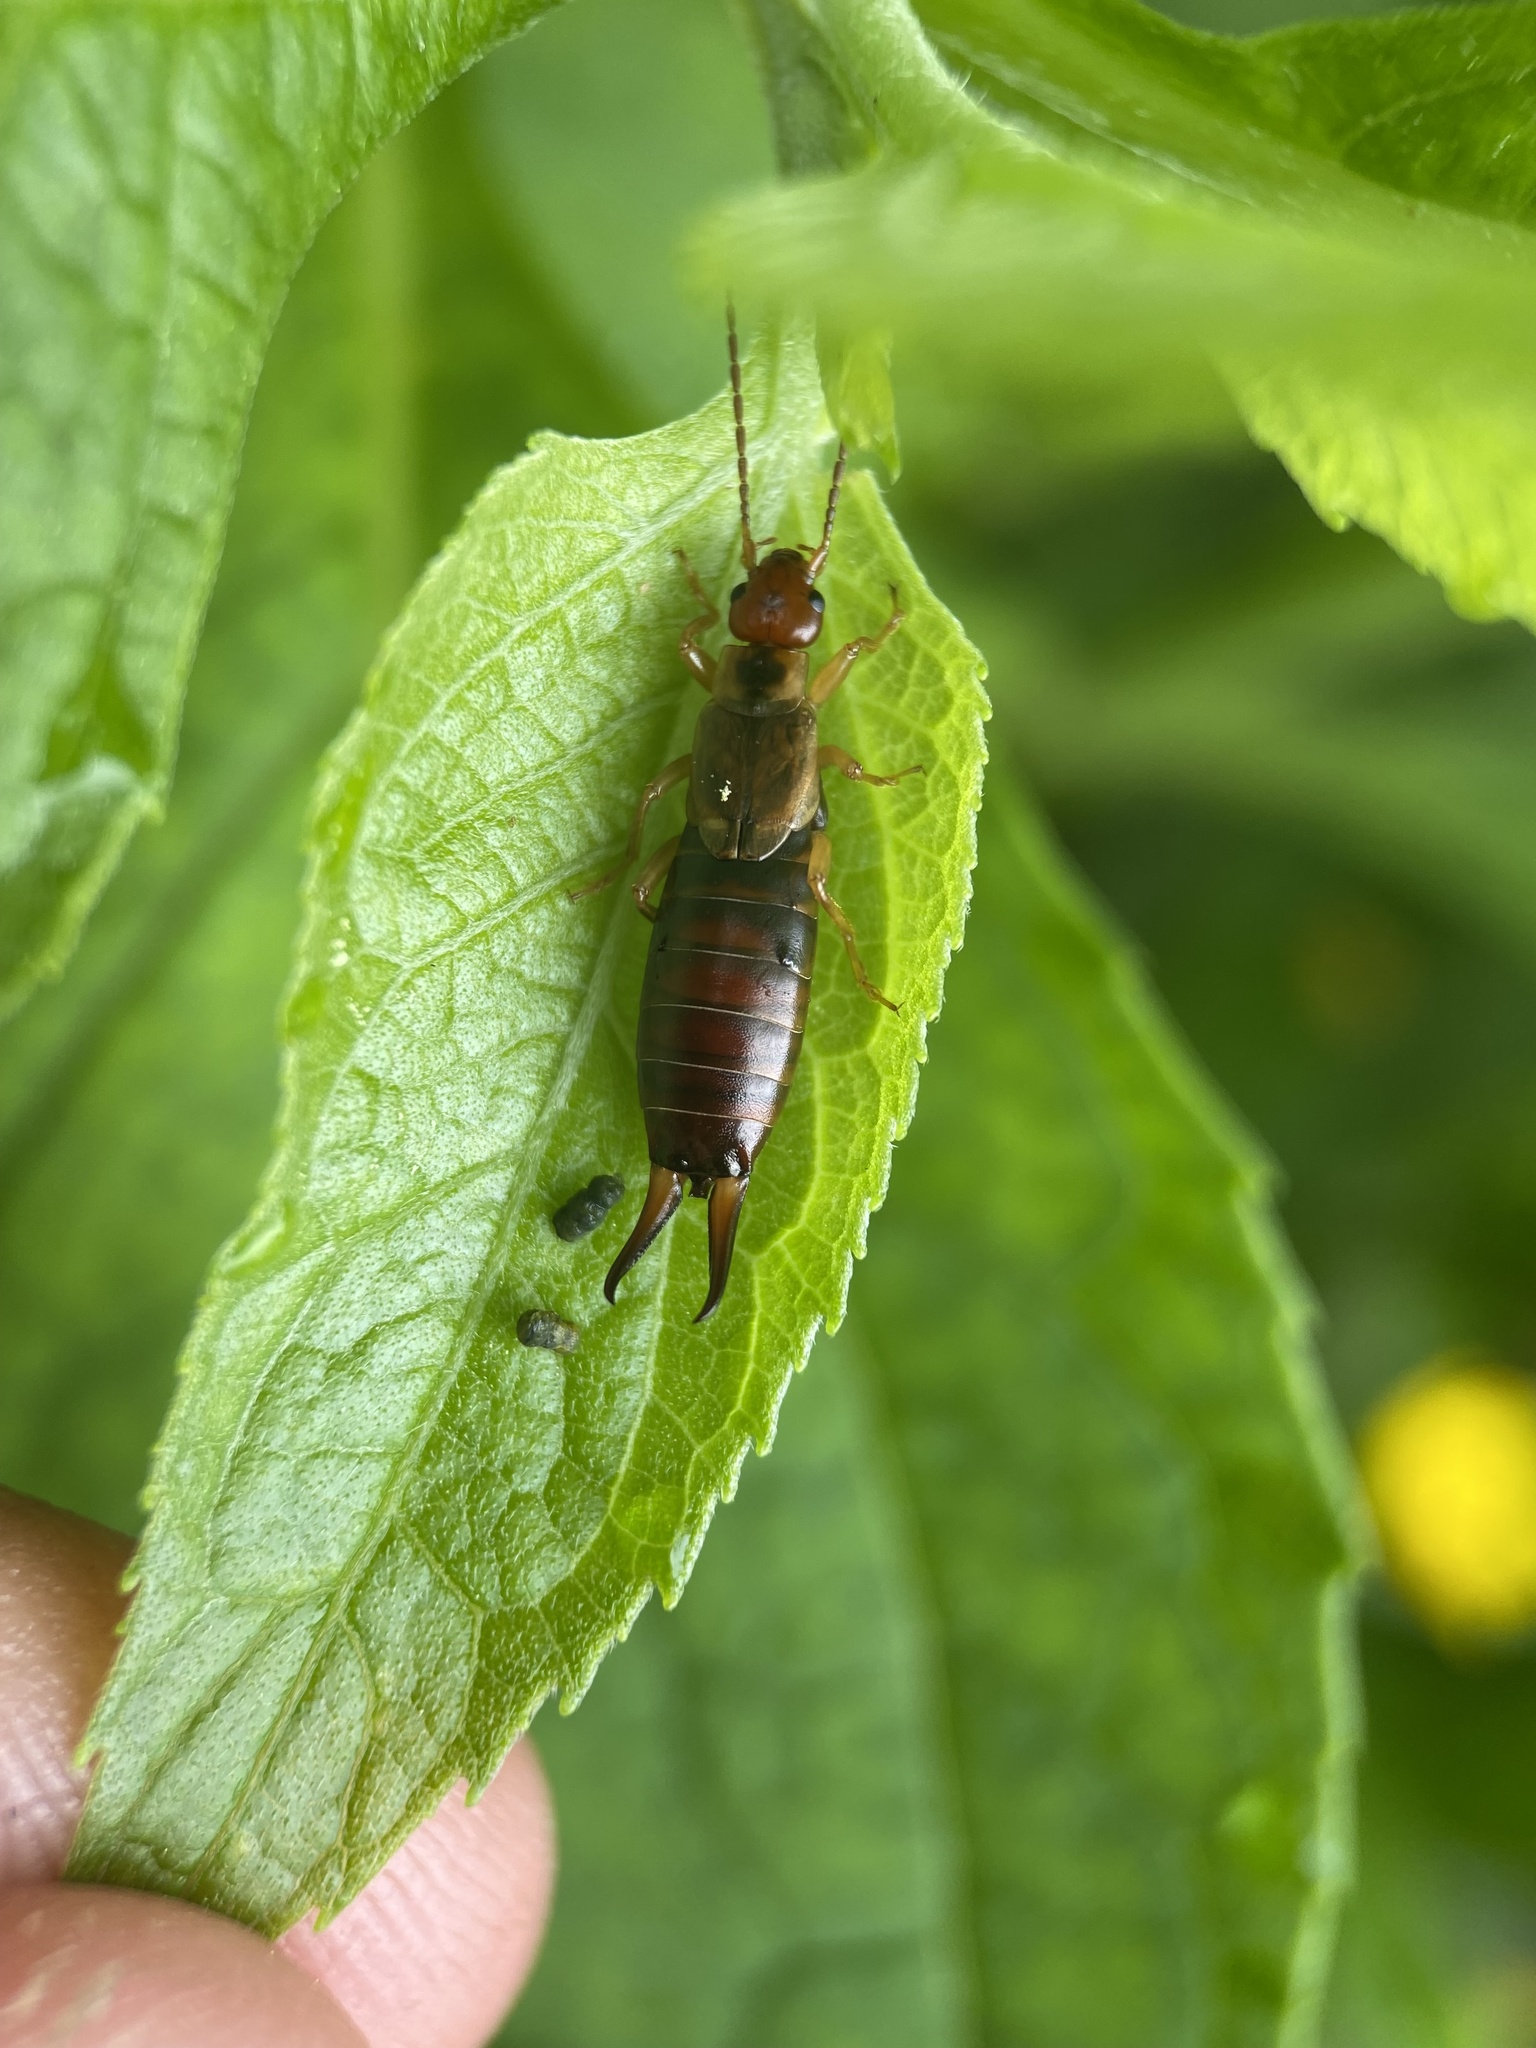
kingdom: Animalia
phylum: Arthropoda
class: Insecta
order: Dermaptera
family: Forficulidae
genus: Forficula
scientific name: Forficula
